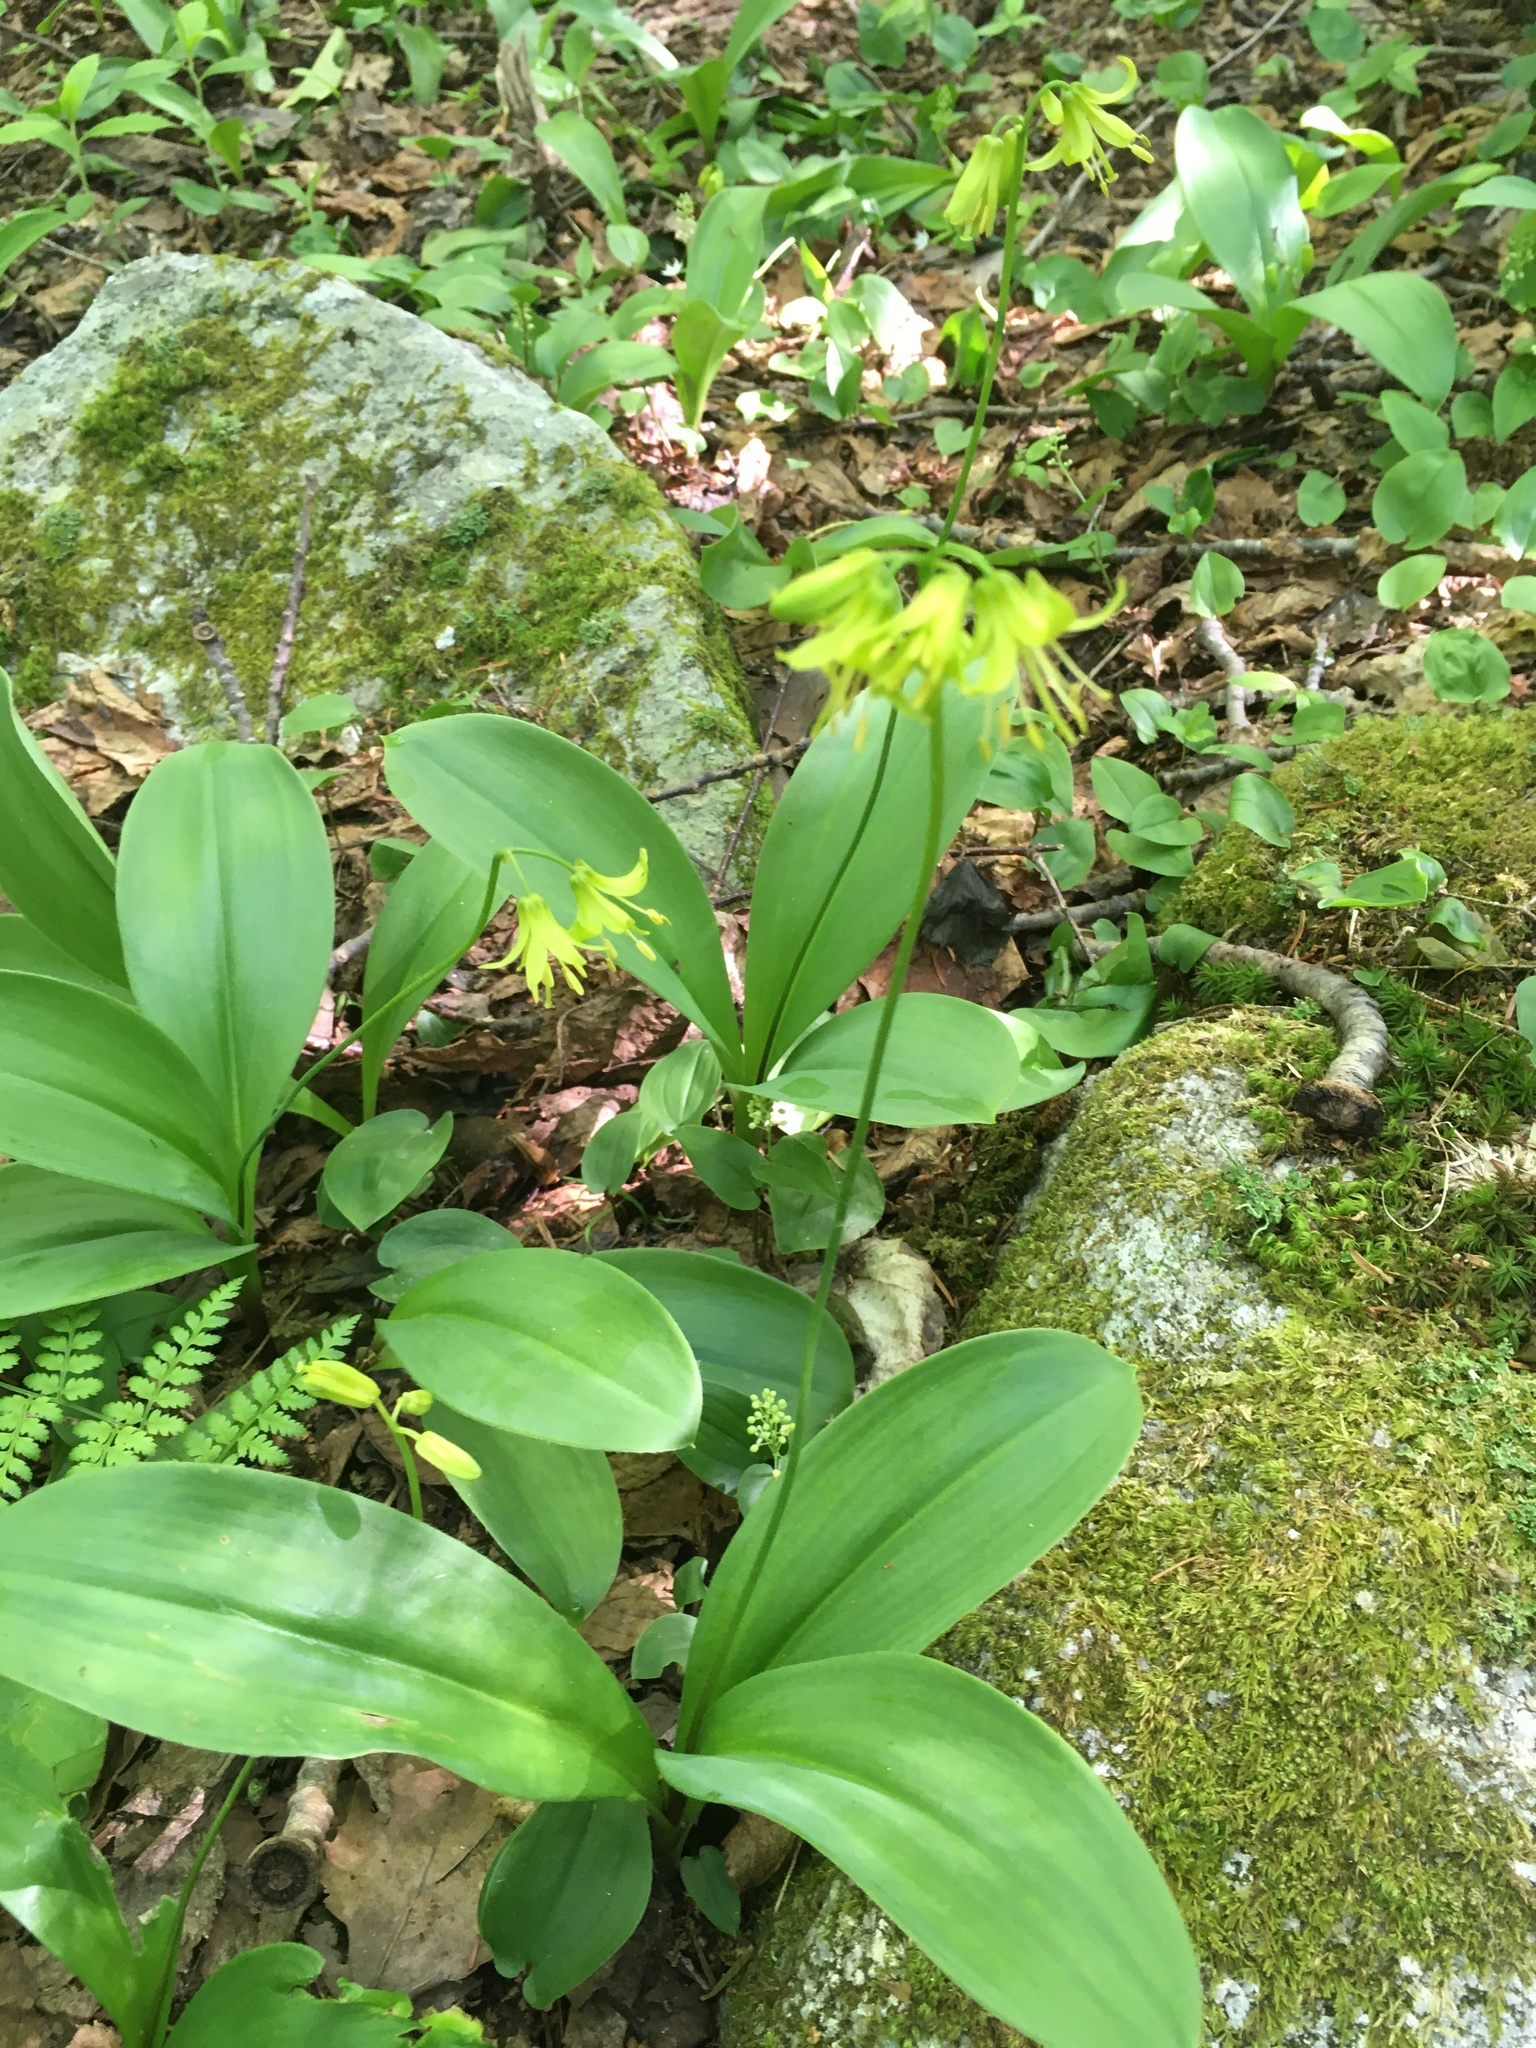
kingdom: Plantae
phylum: Tracheophyta
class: Liliopsida
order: Liliales
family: Liliaceae
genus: Clintonia
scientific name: Clintonia borealis
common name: Yellow clintonia
